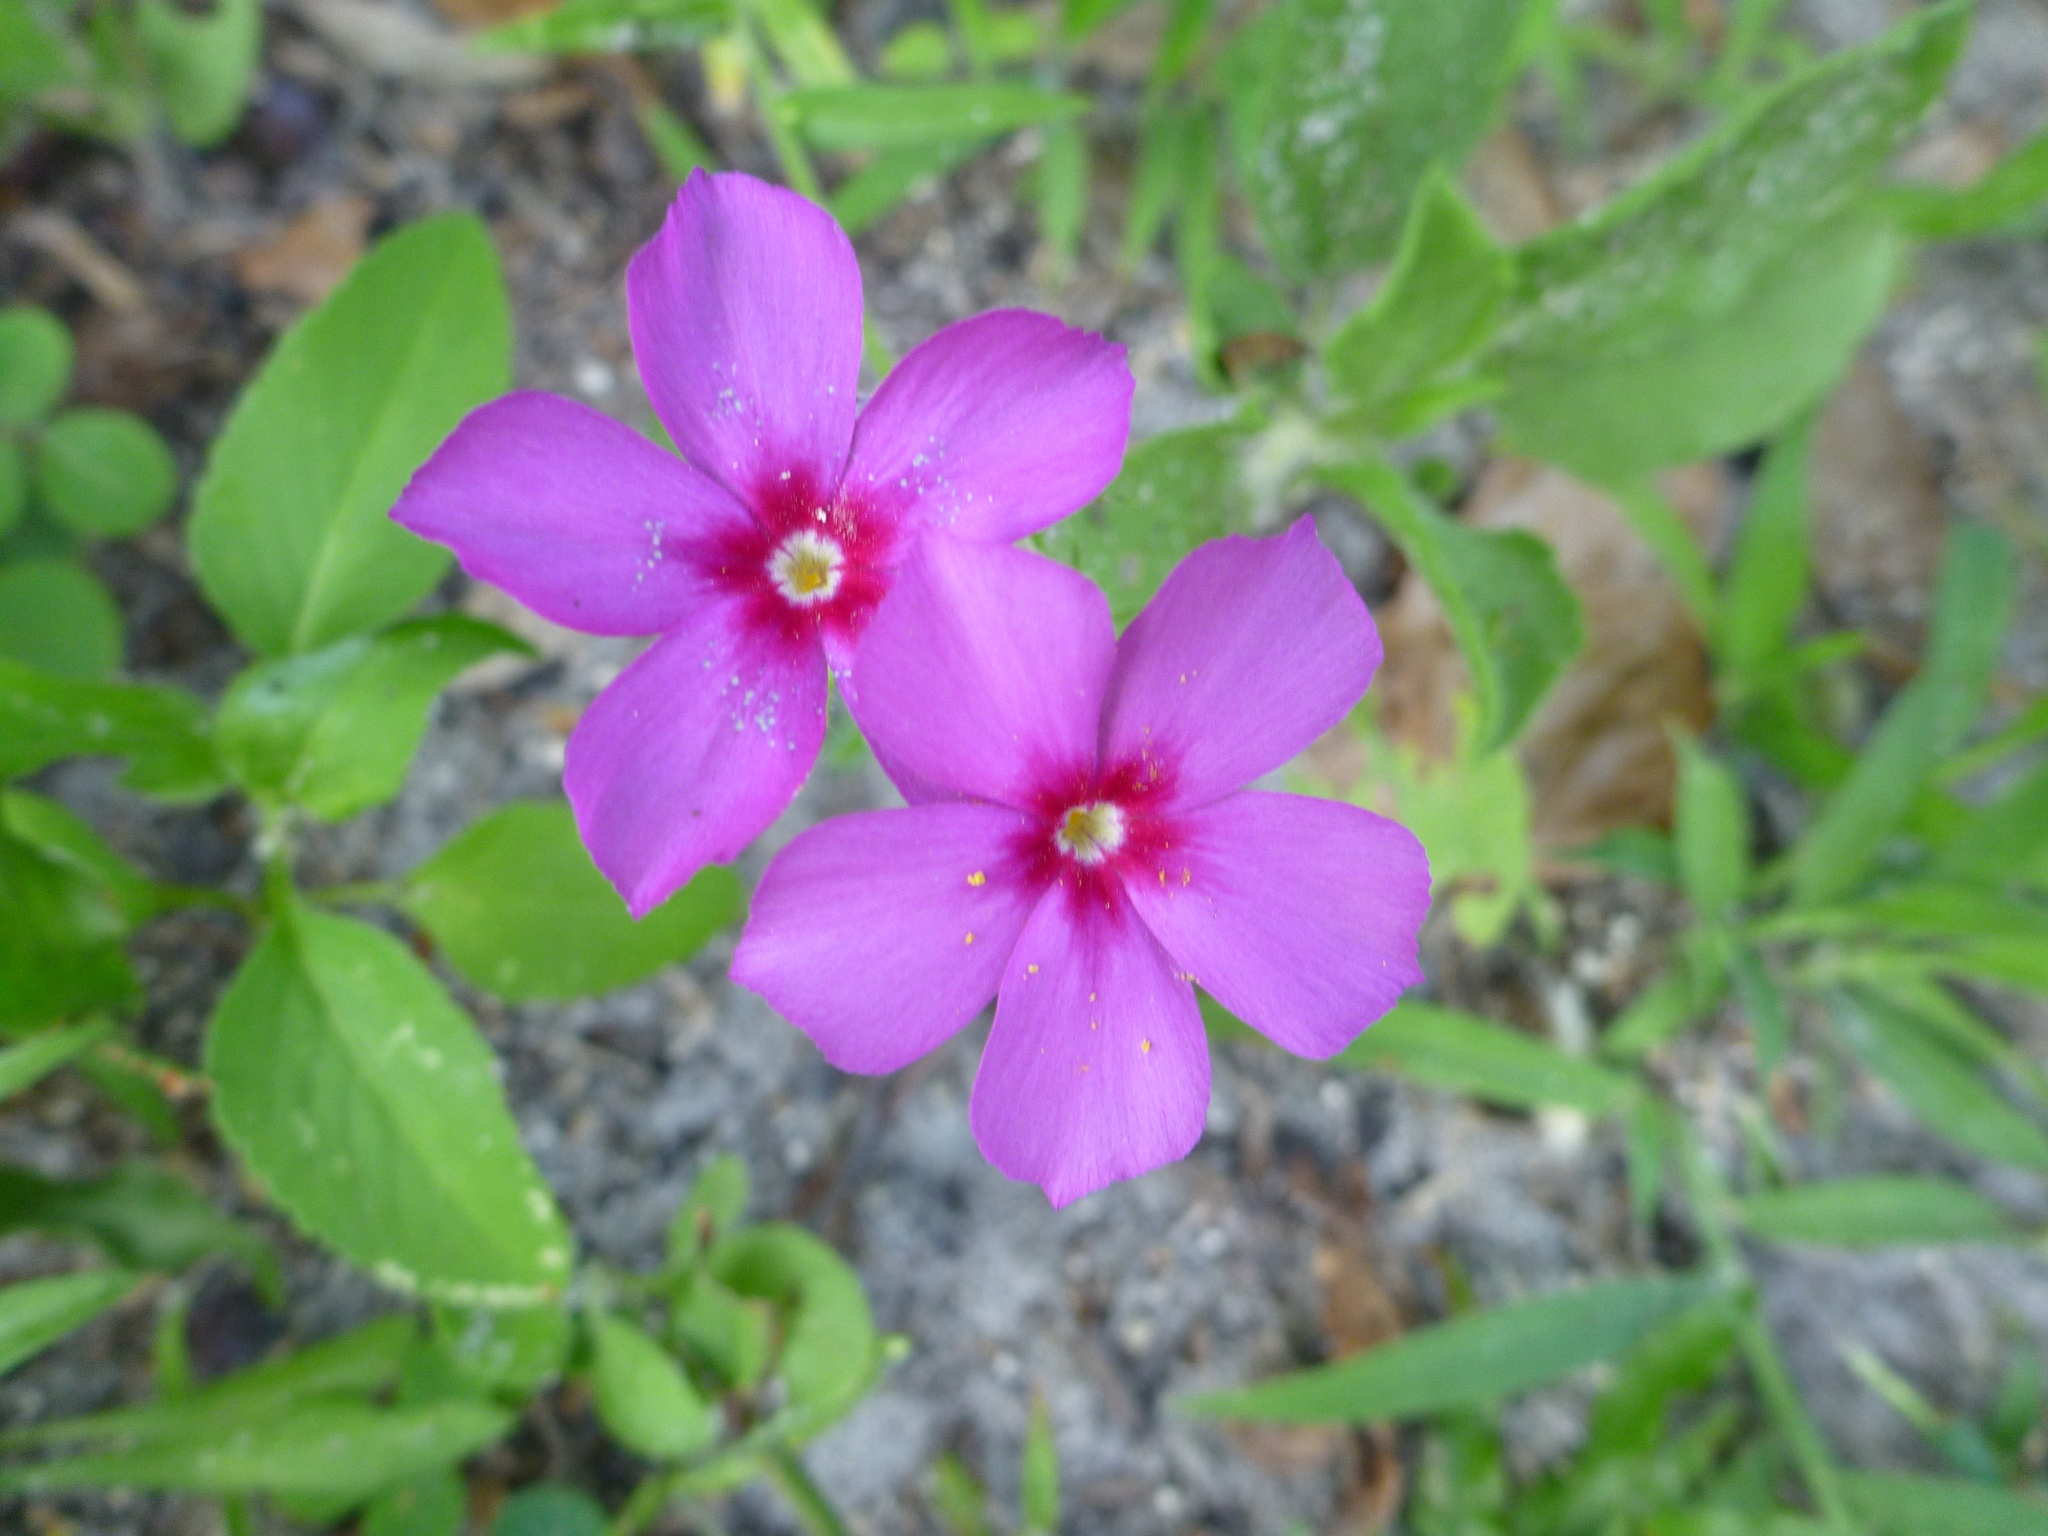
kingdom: Plantae
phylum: Tracheophyta
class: Magnoliopsida
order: Ericales
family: Polemoniaceae
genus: Phlox
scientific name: Phlox drummondii
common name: Drummond's phlox
